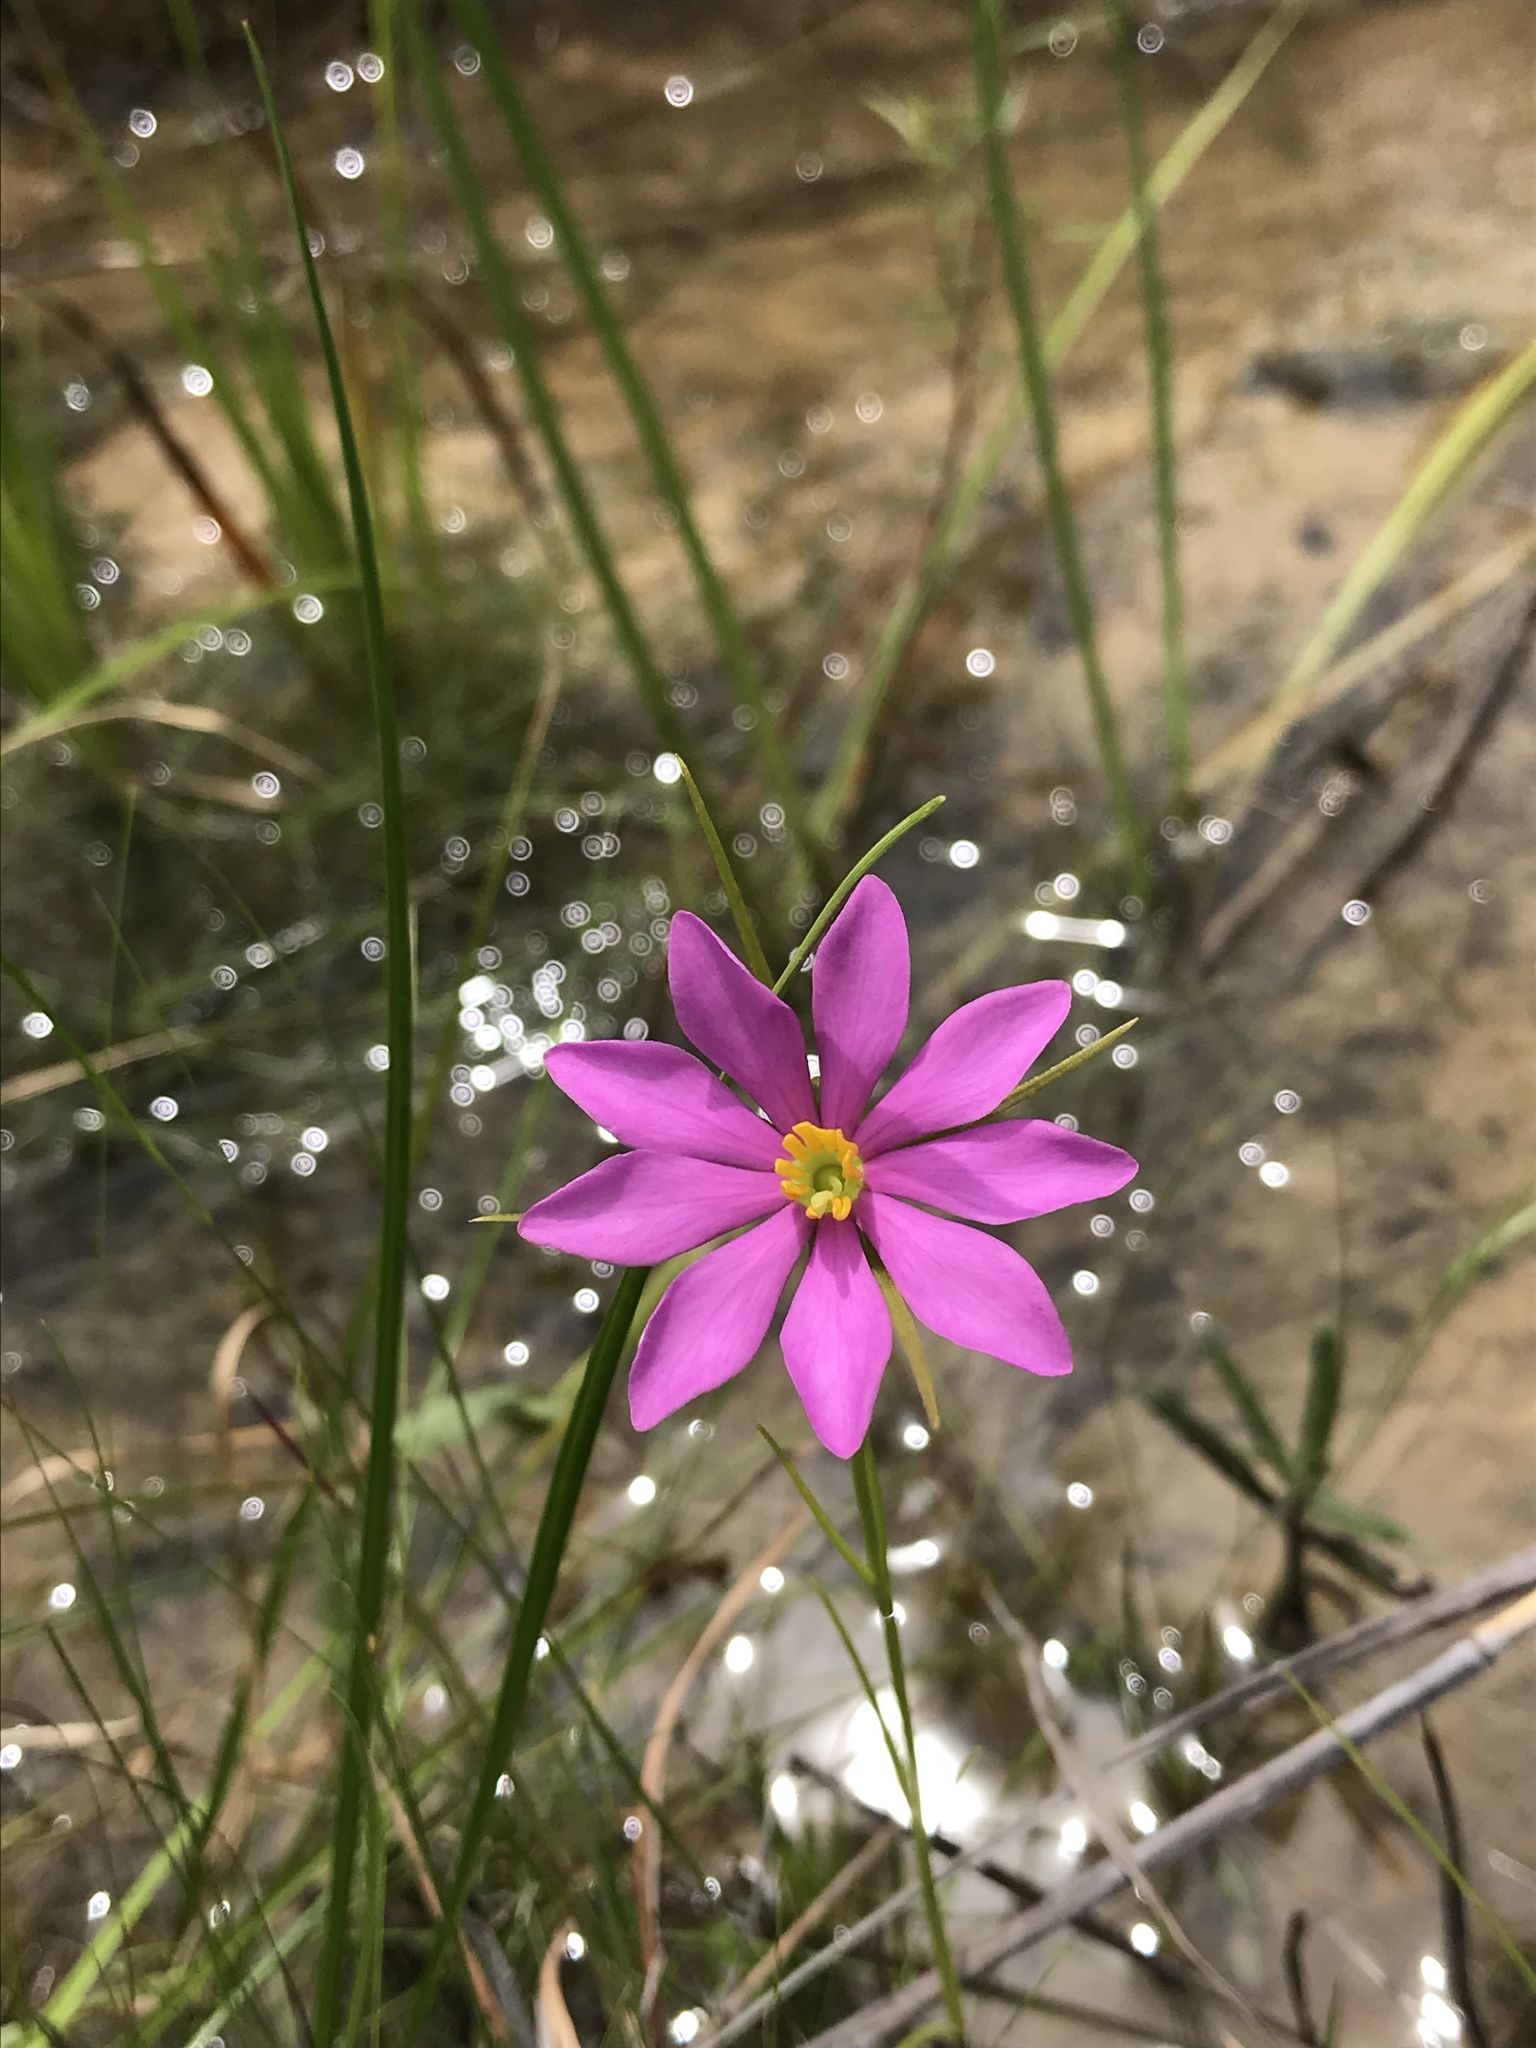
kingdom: Plantae
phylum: Tracheophyta
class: Magnoliopsida
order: Gentianales
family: Gentianaceae
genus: Sabatia
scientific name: Sabatia gentianoides
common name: Pinewoods rose-gentian
